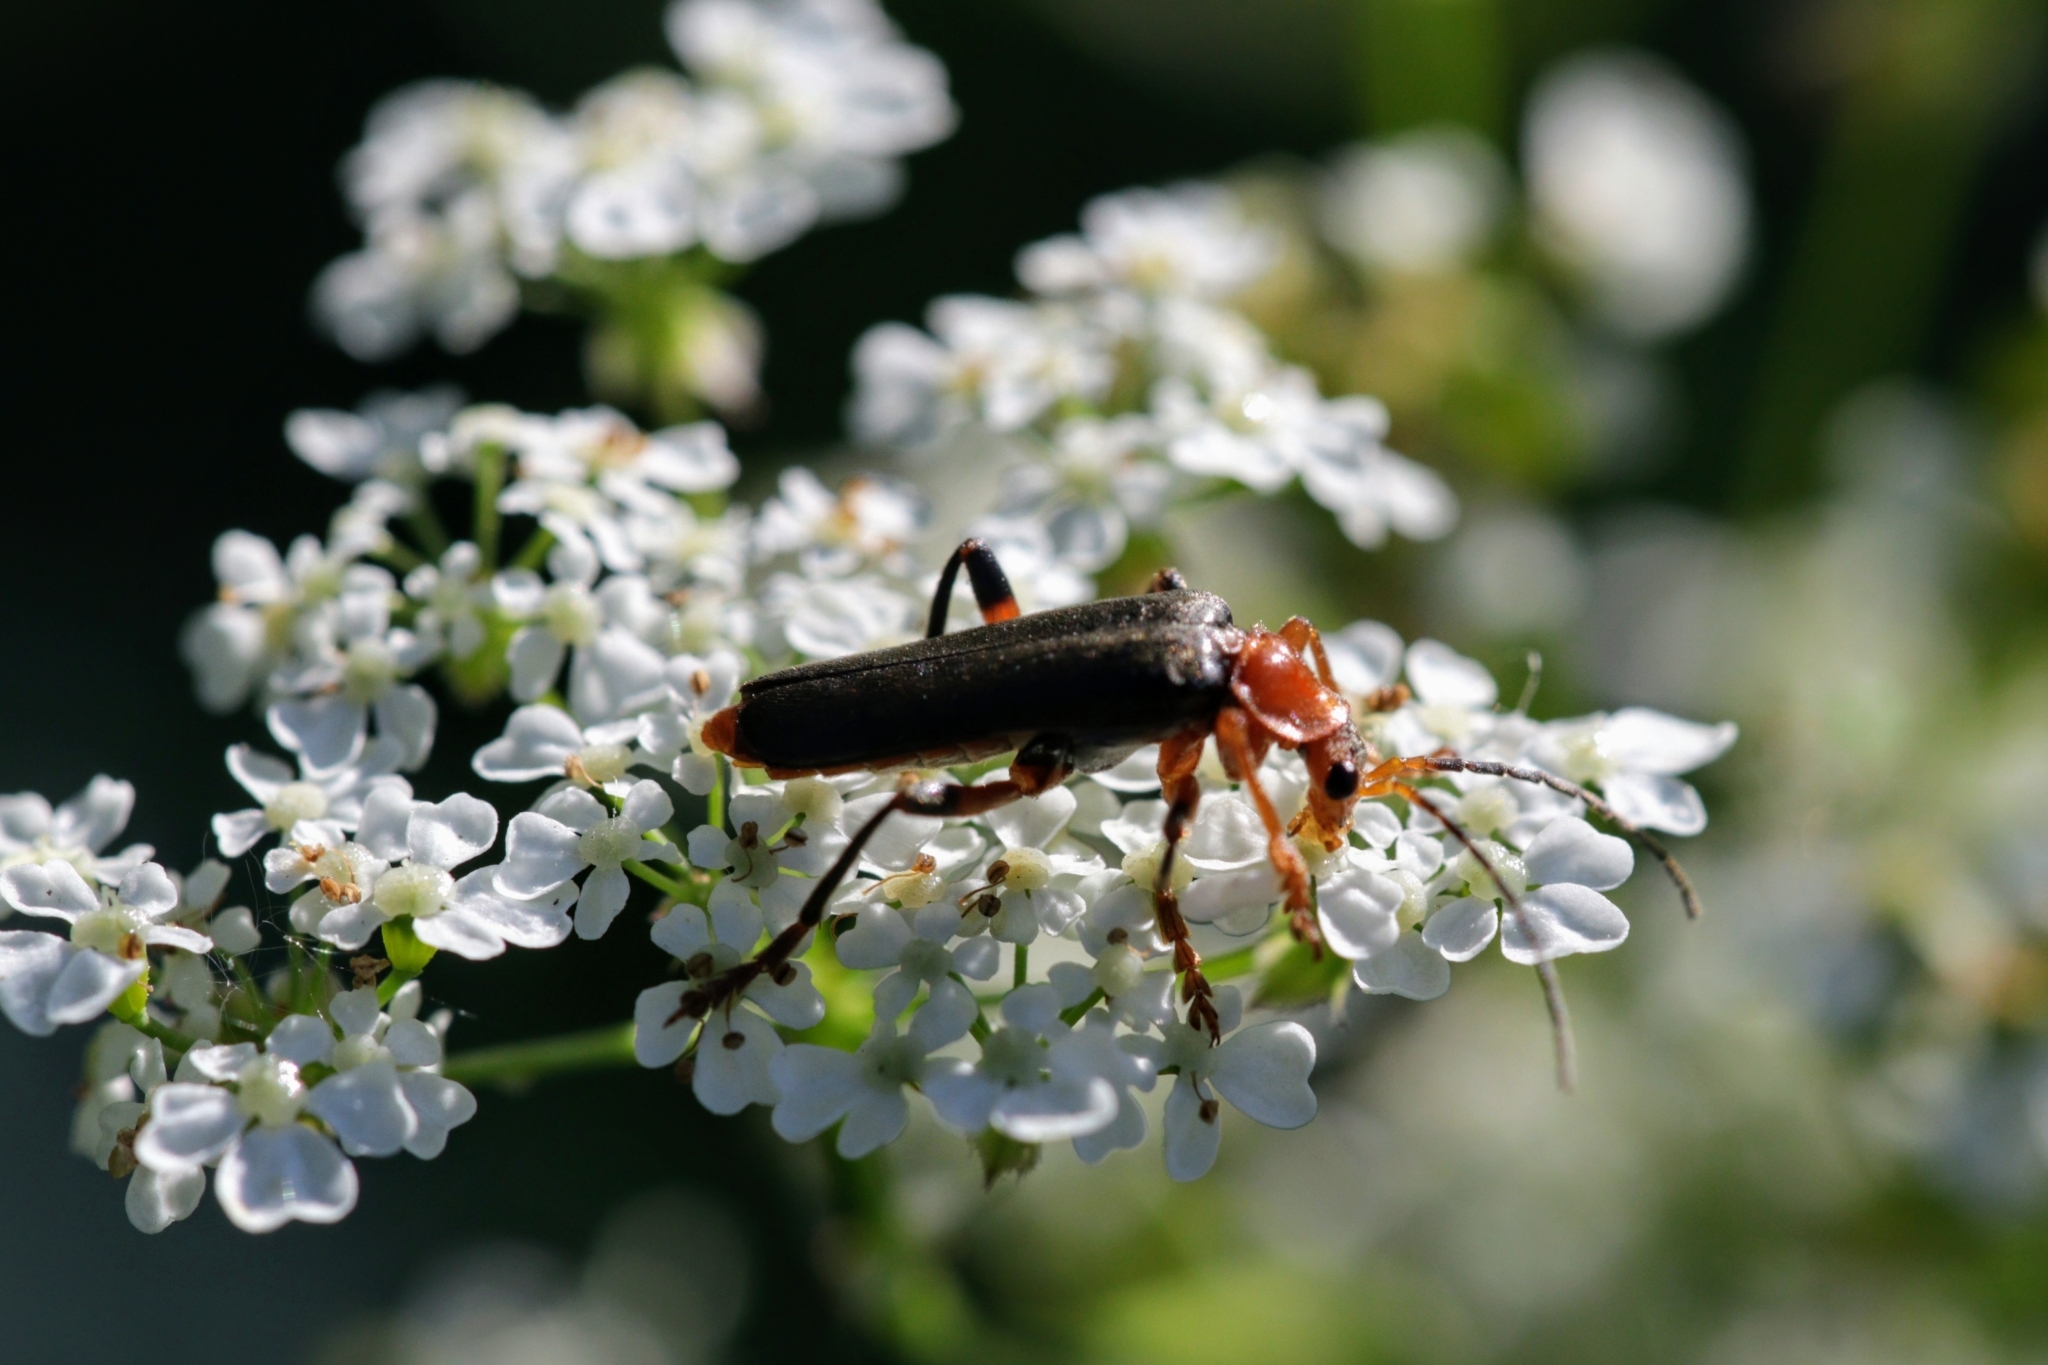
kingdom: Animalia
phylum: Arthropoda
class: Insecta
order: Coleoptera
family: Cantharidae
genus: Cantharis
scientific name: Cantharis livida
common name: Livid soldier beetle
